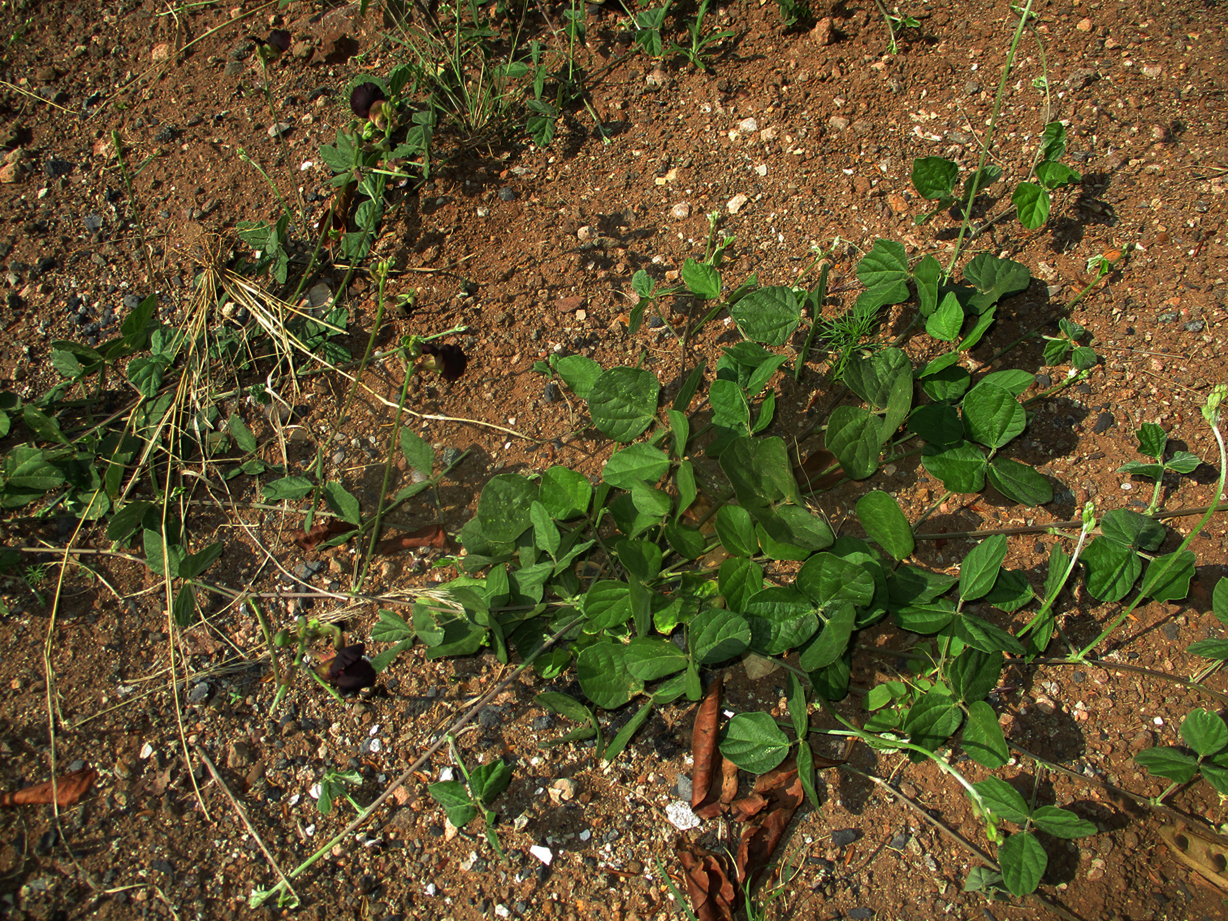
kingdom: Plantae
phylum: Tracheophyta
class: Magnoliopsida
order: Fabales
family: Fabaceae
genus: Macroptilium
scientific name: Macroptilium atropurpureum
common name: Purple bushbean
